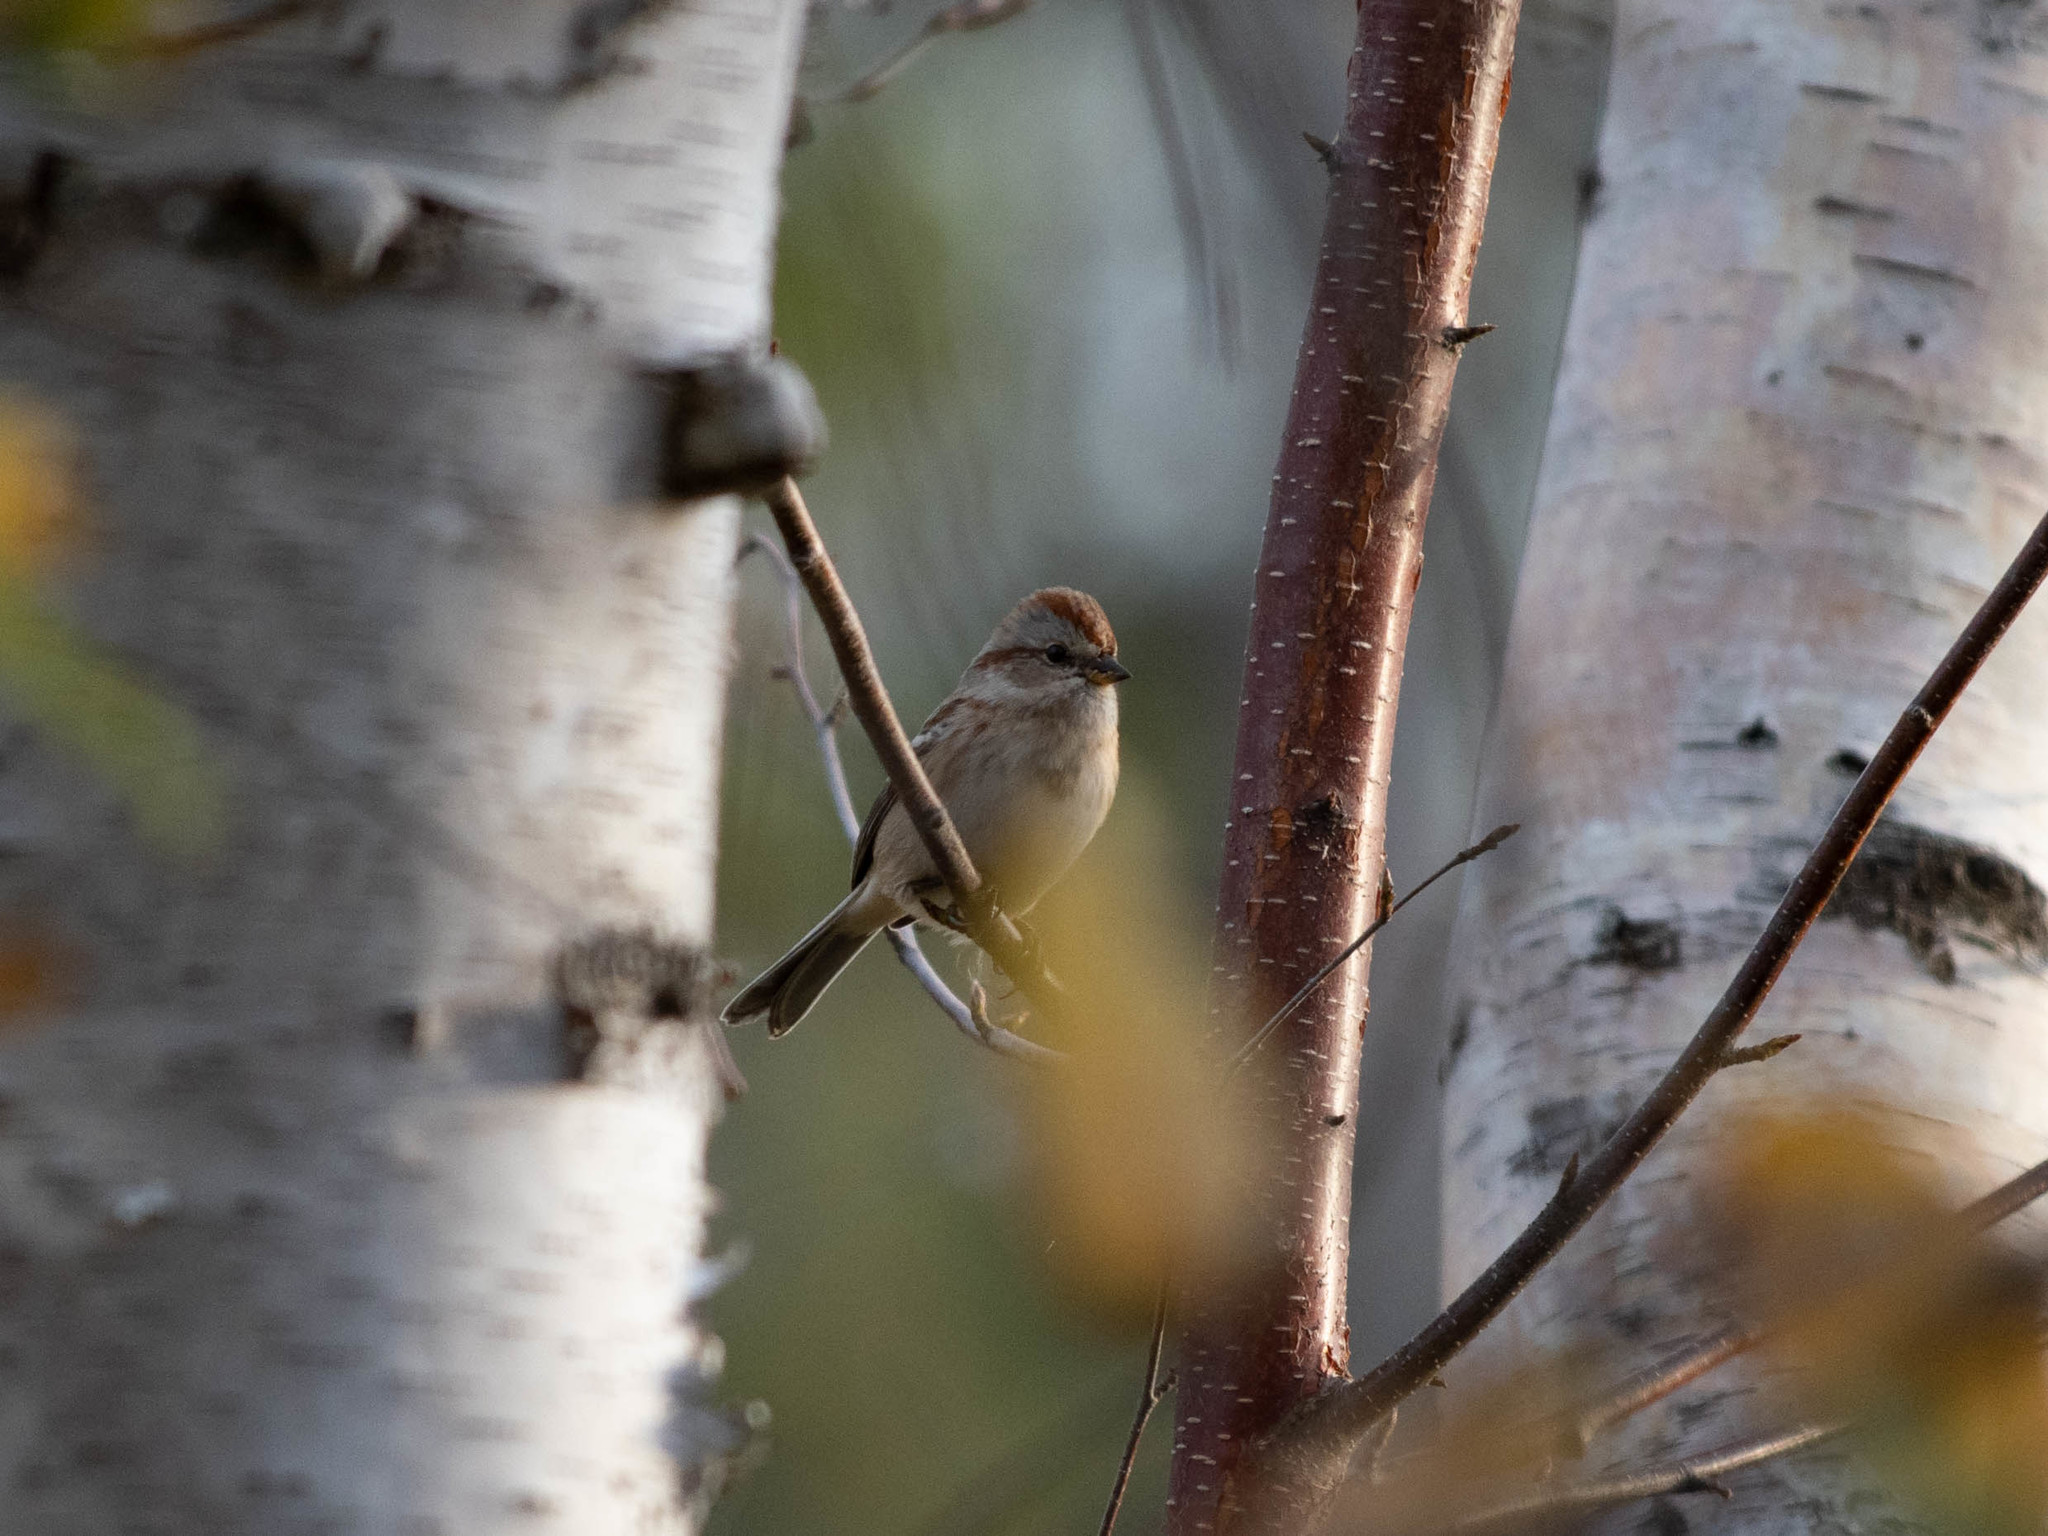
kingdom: Animalia
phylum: Chordata
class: Aves
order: Passeriformes
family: Passerellidae
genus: Spizelloides
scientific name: Spizelloides arborea
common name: American tree sparrow
